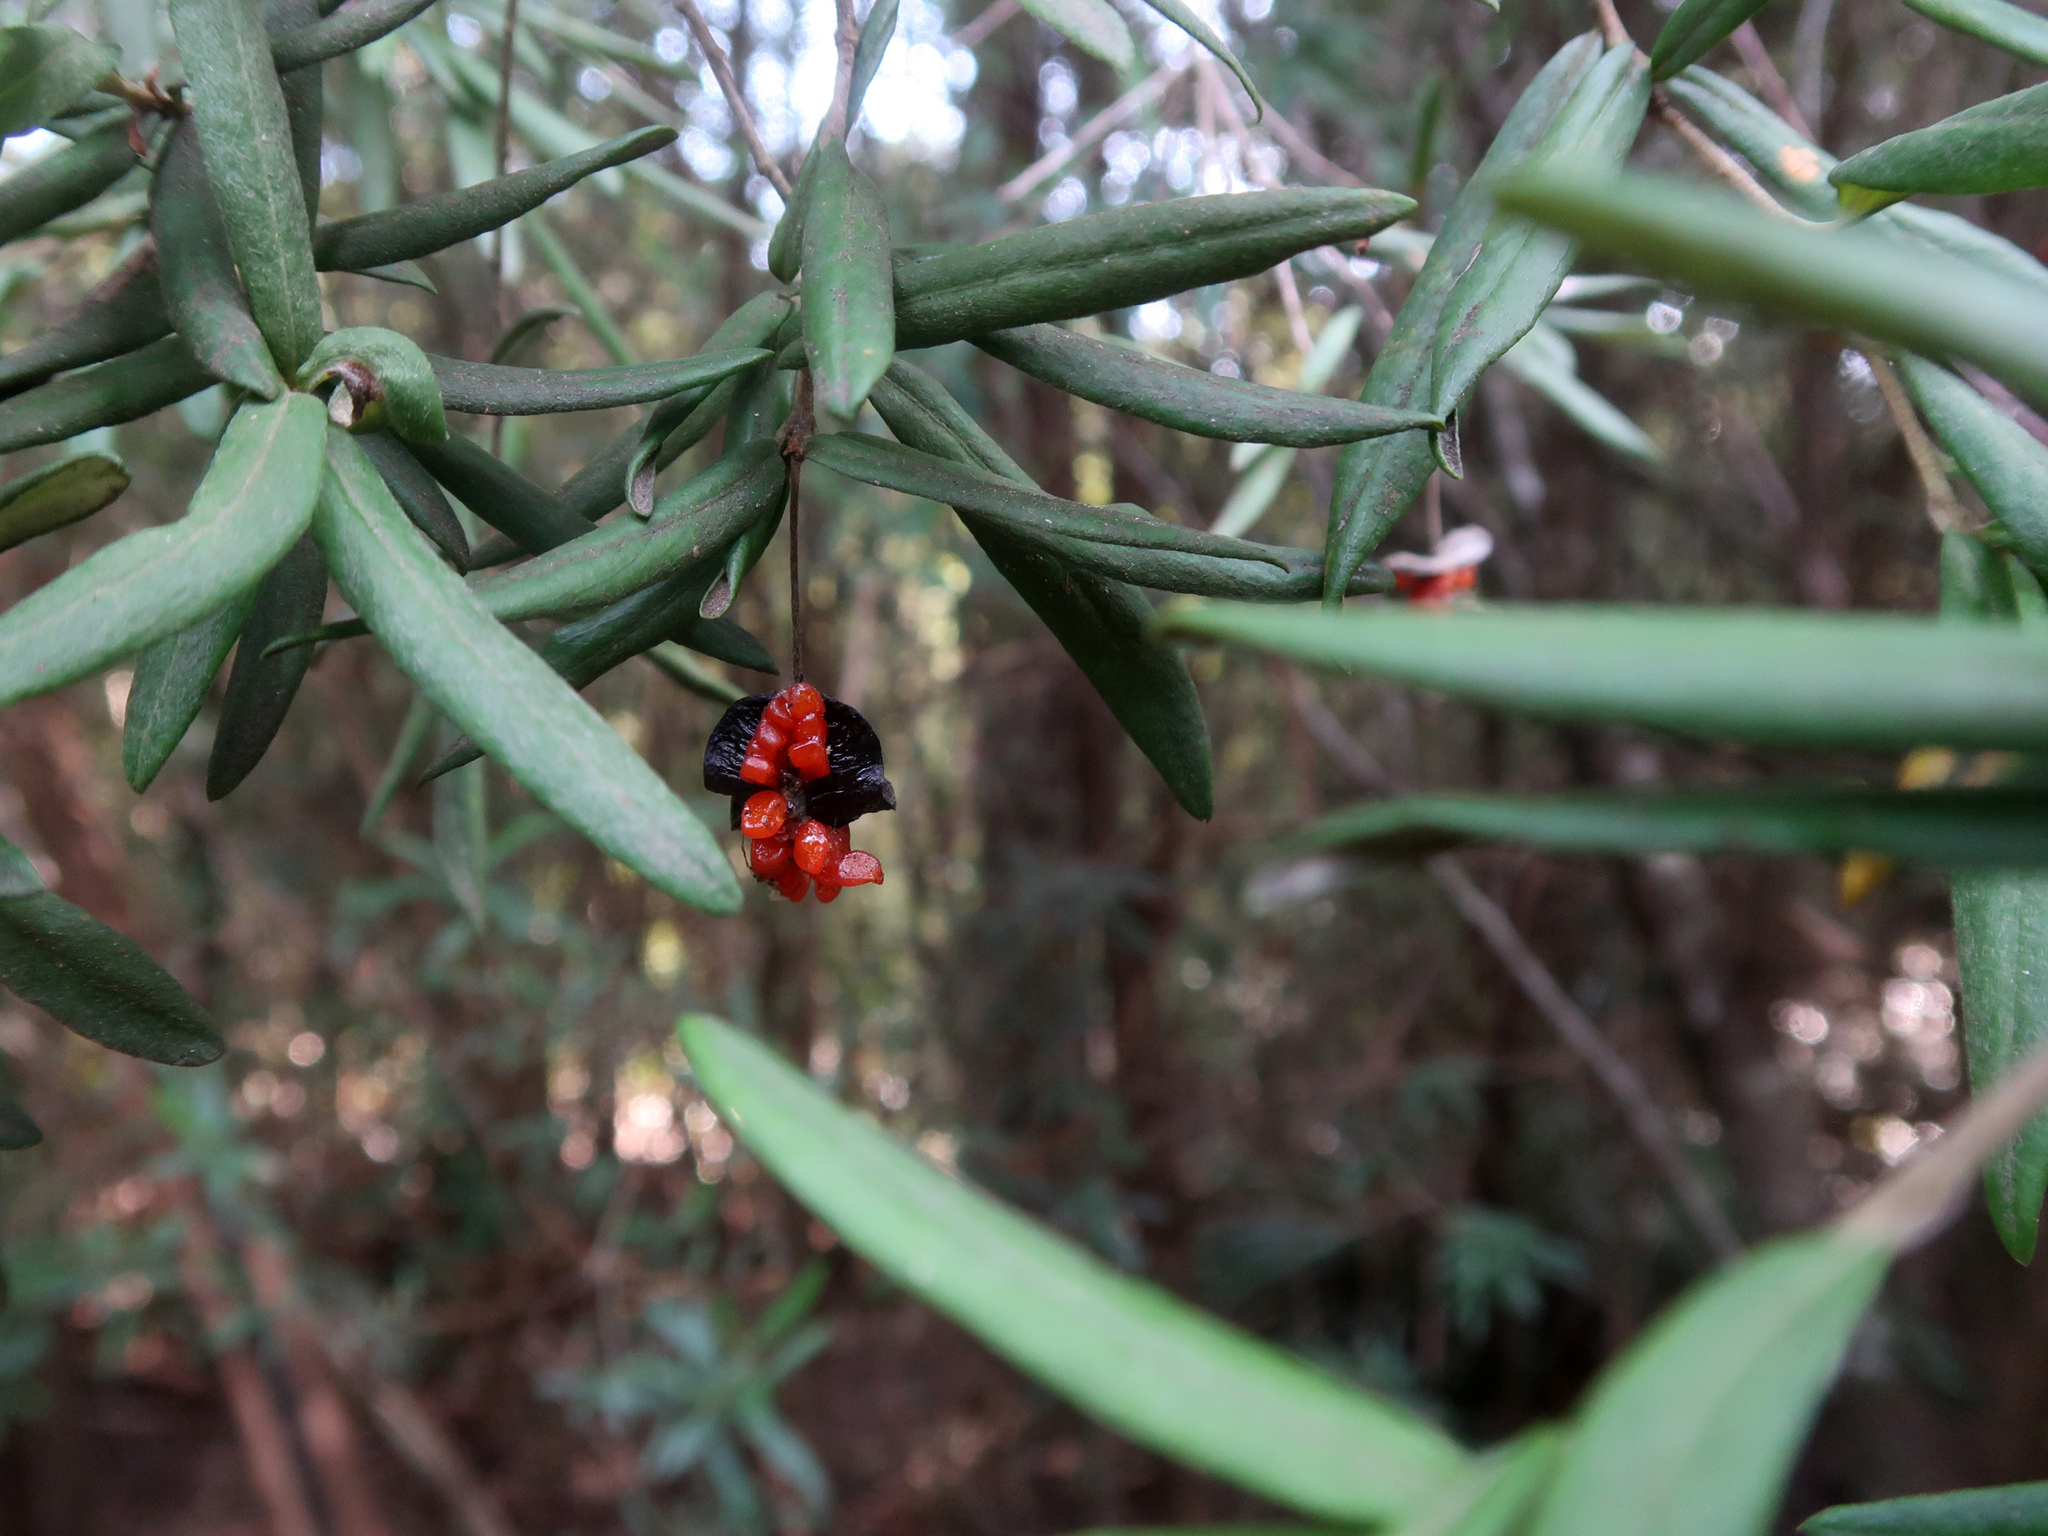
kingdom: Plantae
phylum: Tracheophyta
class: Magnoliopsida
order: Apiales
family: Pittosporaceae
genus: Pittosporum
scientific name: Pittosporum bicolor
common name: Tallowwood
